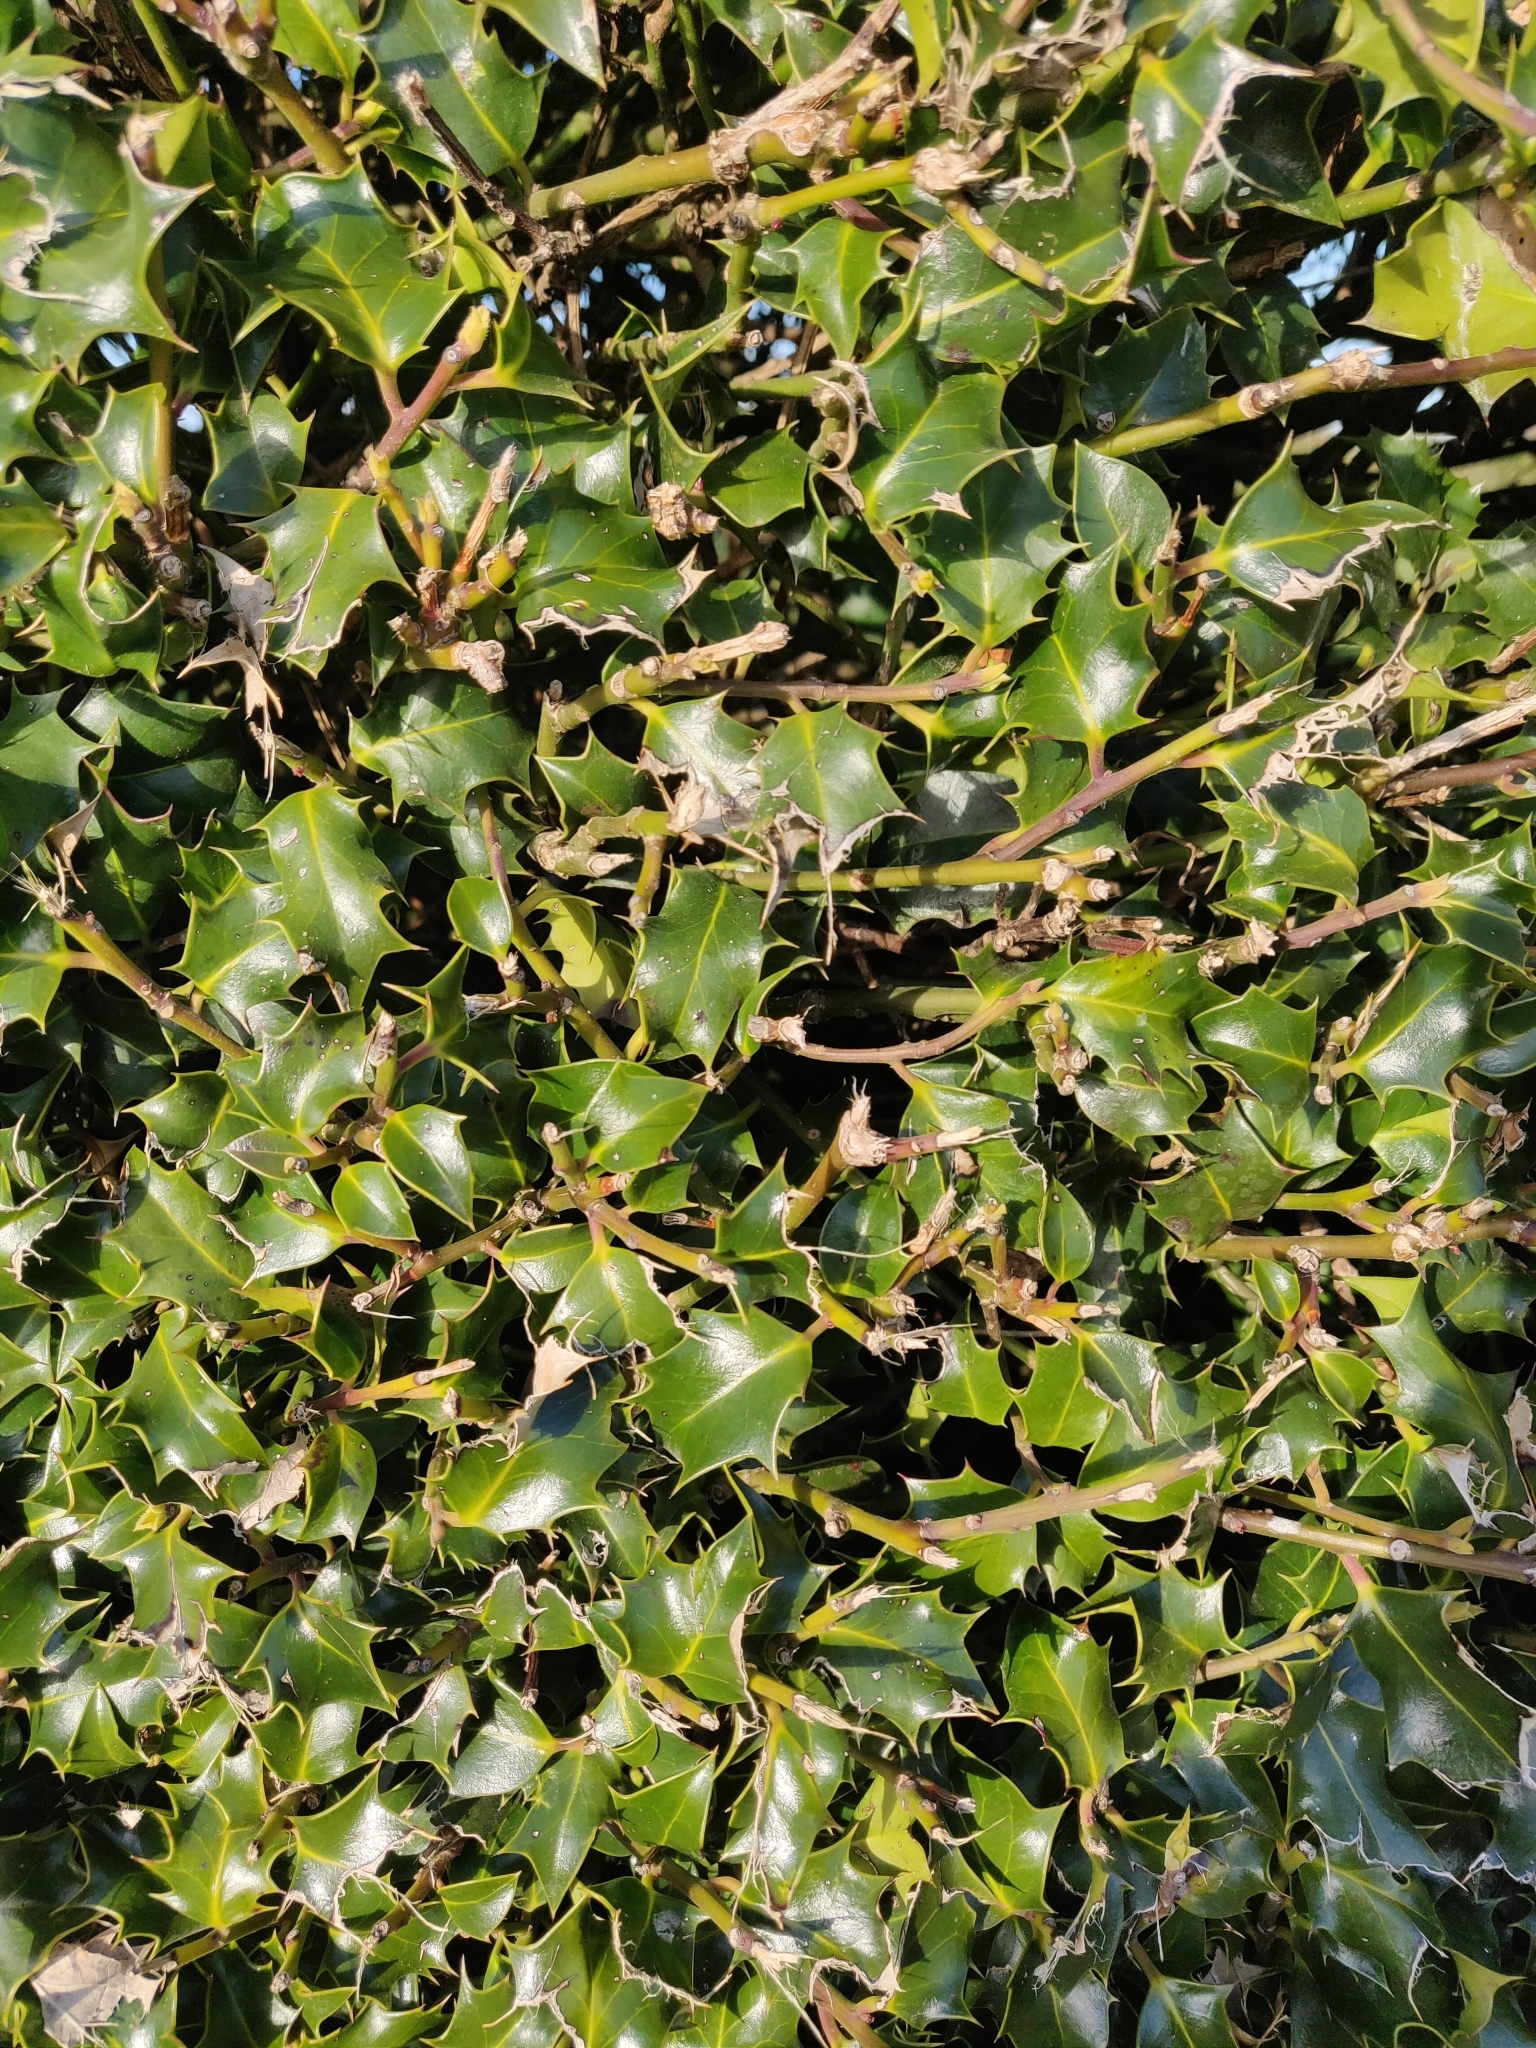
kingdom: Plantae
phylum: Tracheophyta
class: Magnoliopsida
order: Aquifoliales
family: Aquifoliaceae
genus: Ilex
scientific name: Ilex aquifolium
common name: English holly
